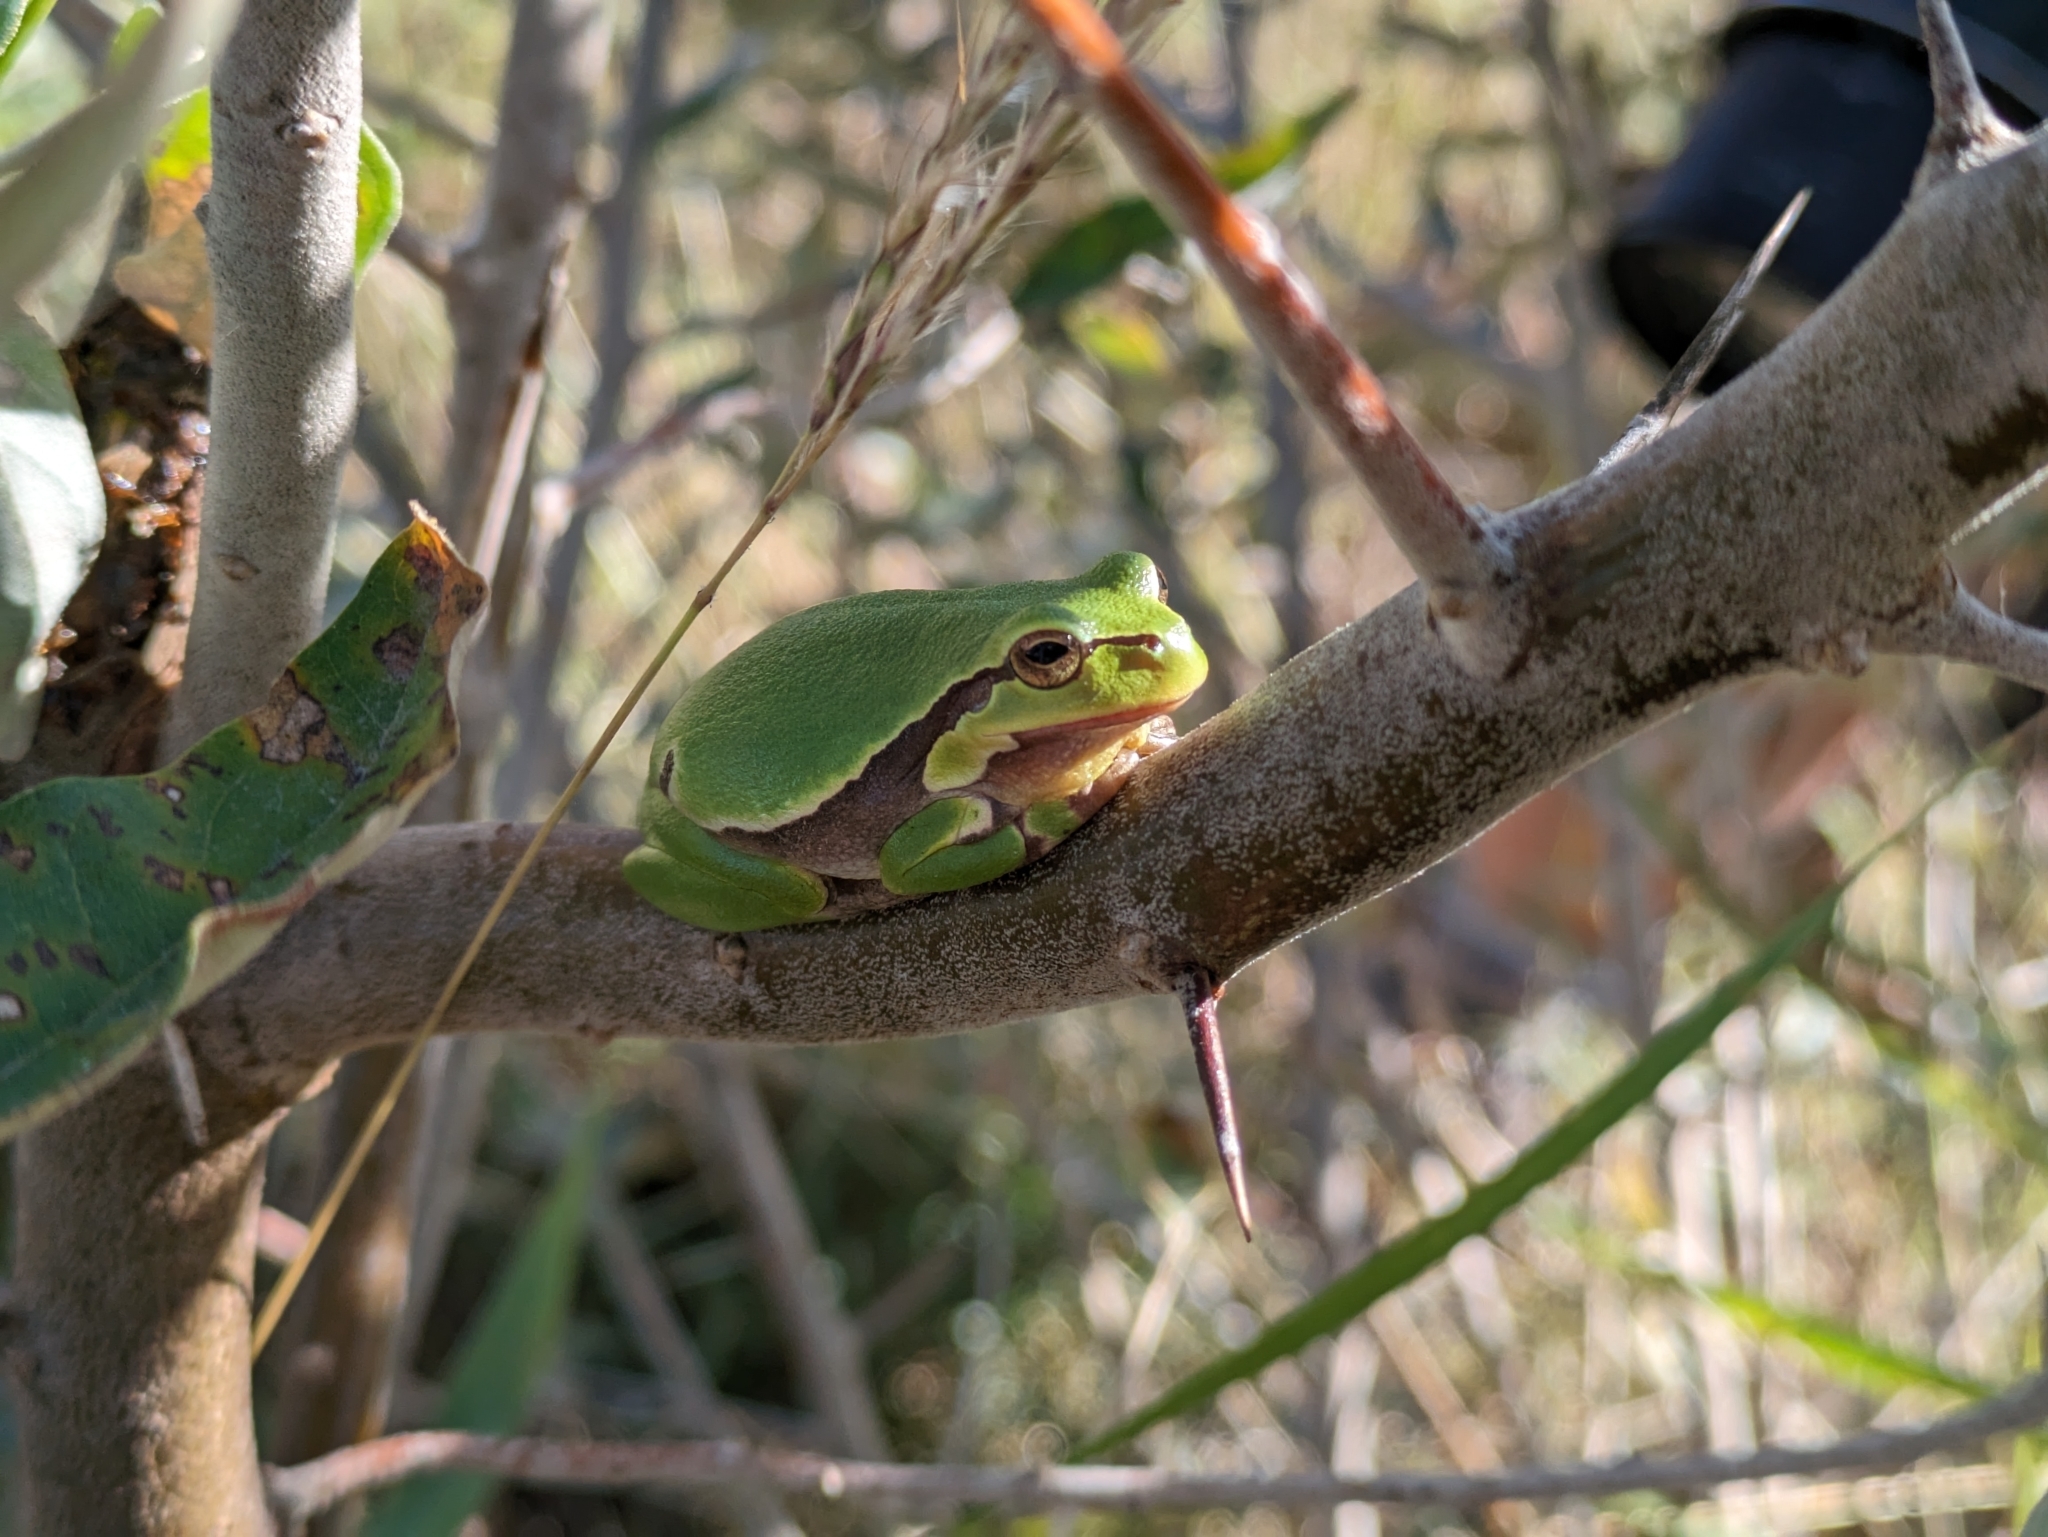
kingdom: Animalia
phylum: Chordata
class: Amphibia
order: Anura
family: Hylidae
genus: Hyla
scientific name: Hyla arborea
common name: Common tree frog
